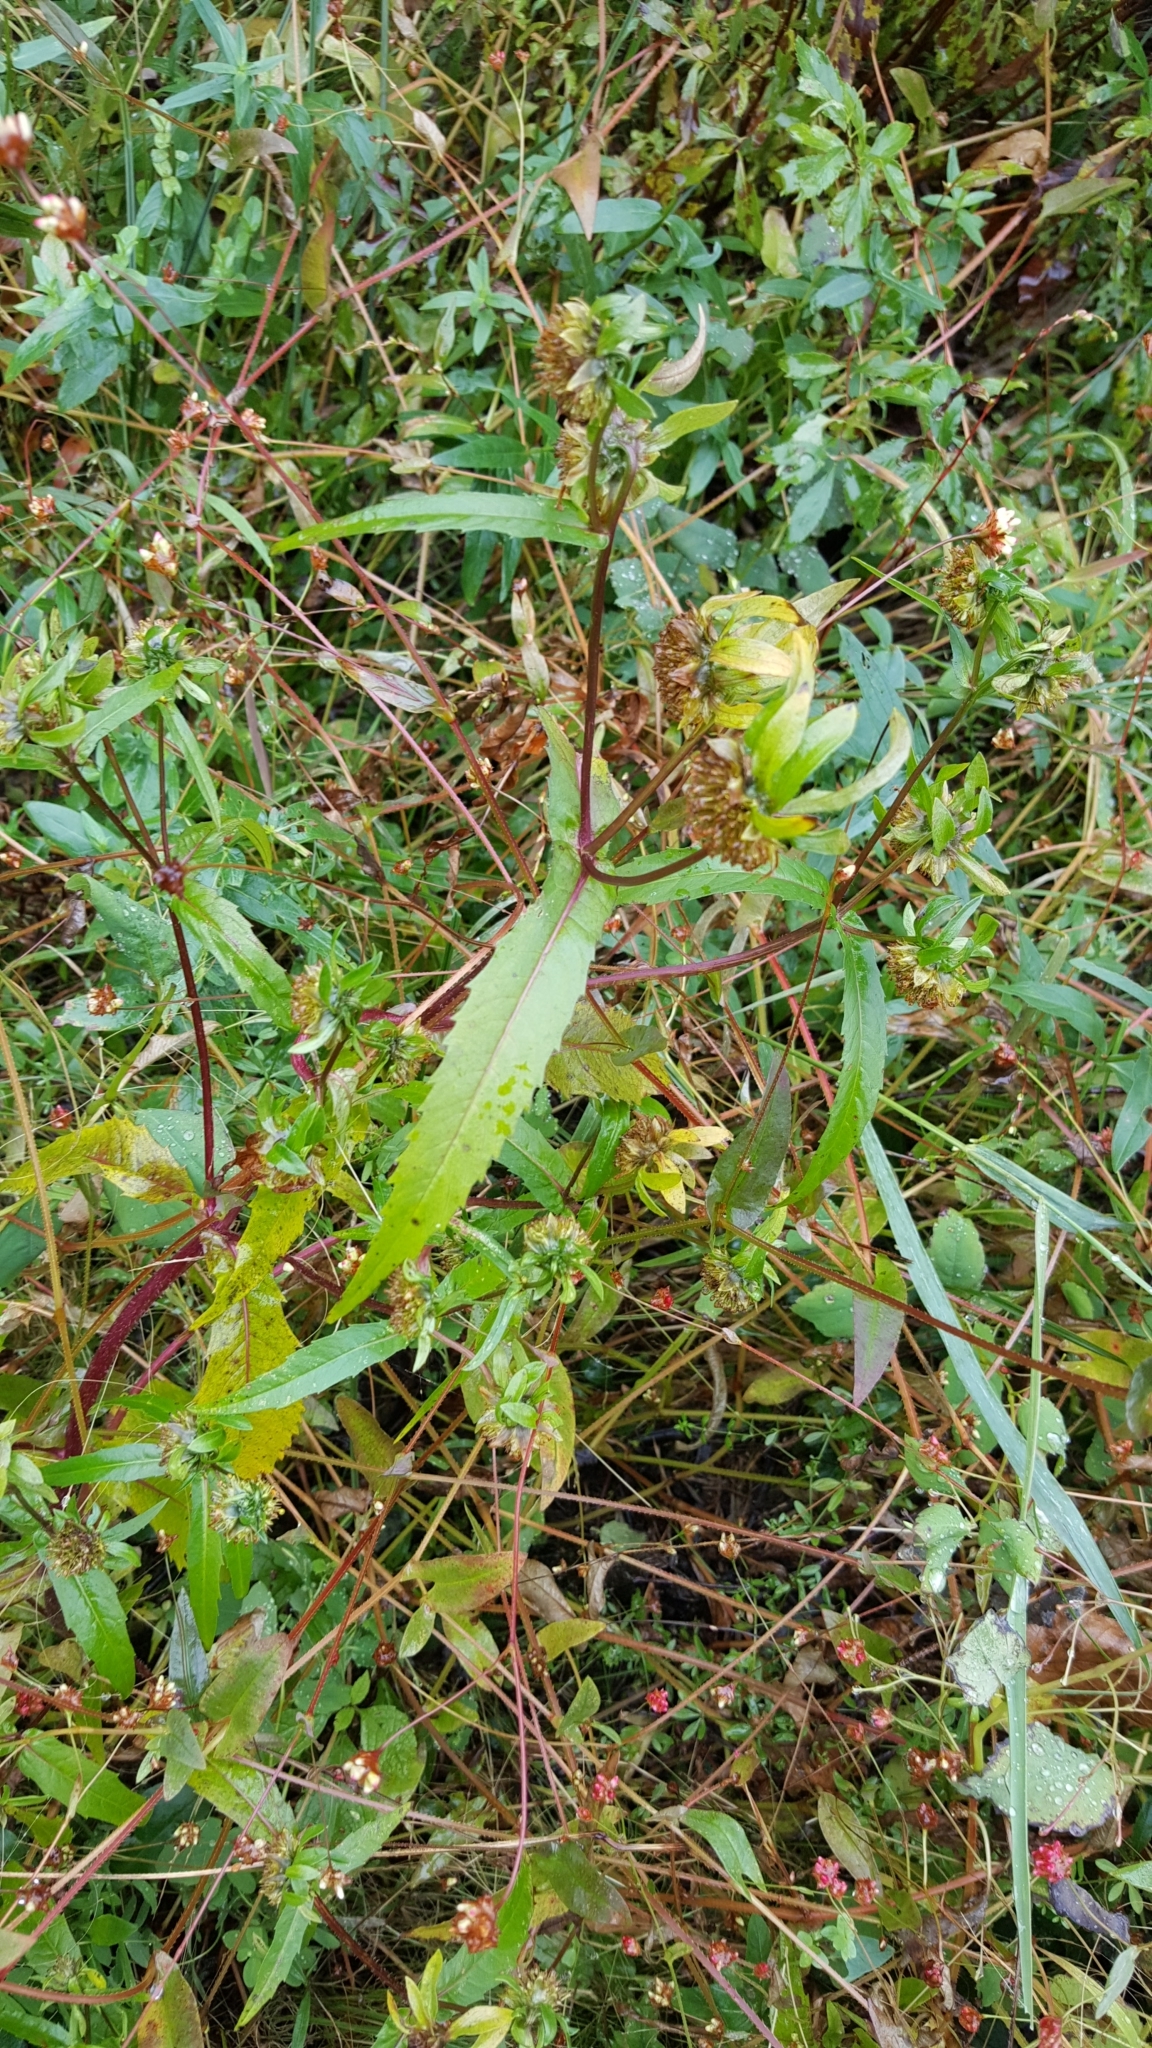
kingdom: Plantae
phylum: Tracheophyta
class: Magnoliopsida
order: Asterales
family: Asteraceae
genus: Bidens
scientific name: Bidens cernua
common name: Nodding bur-marigold
